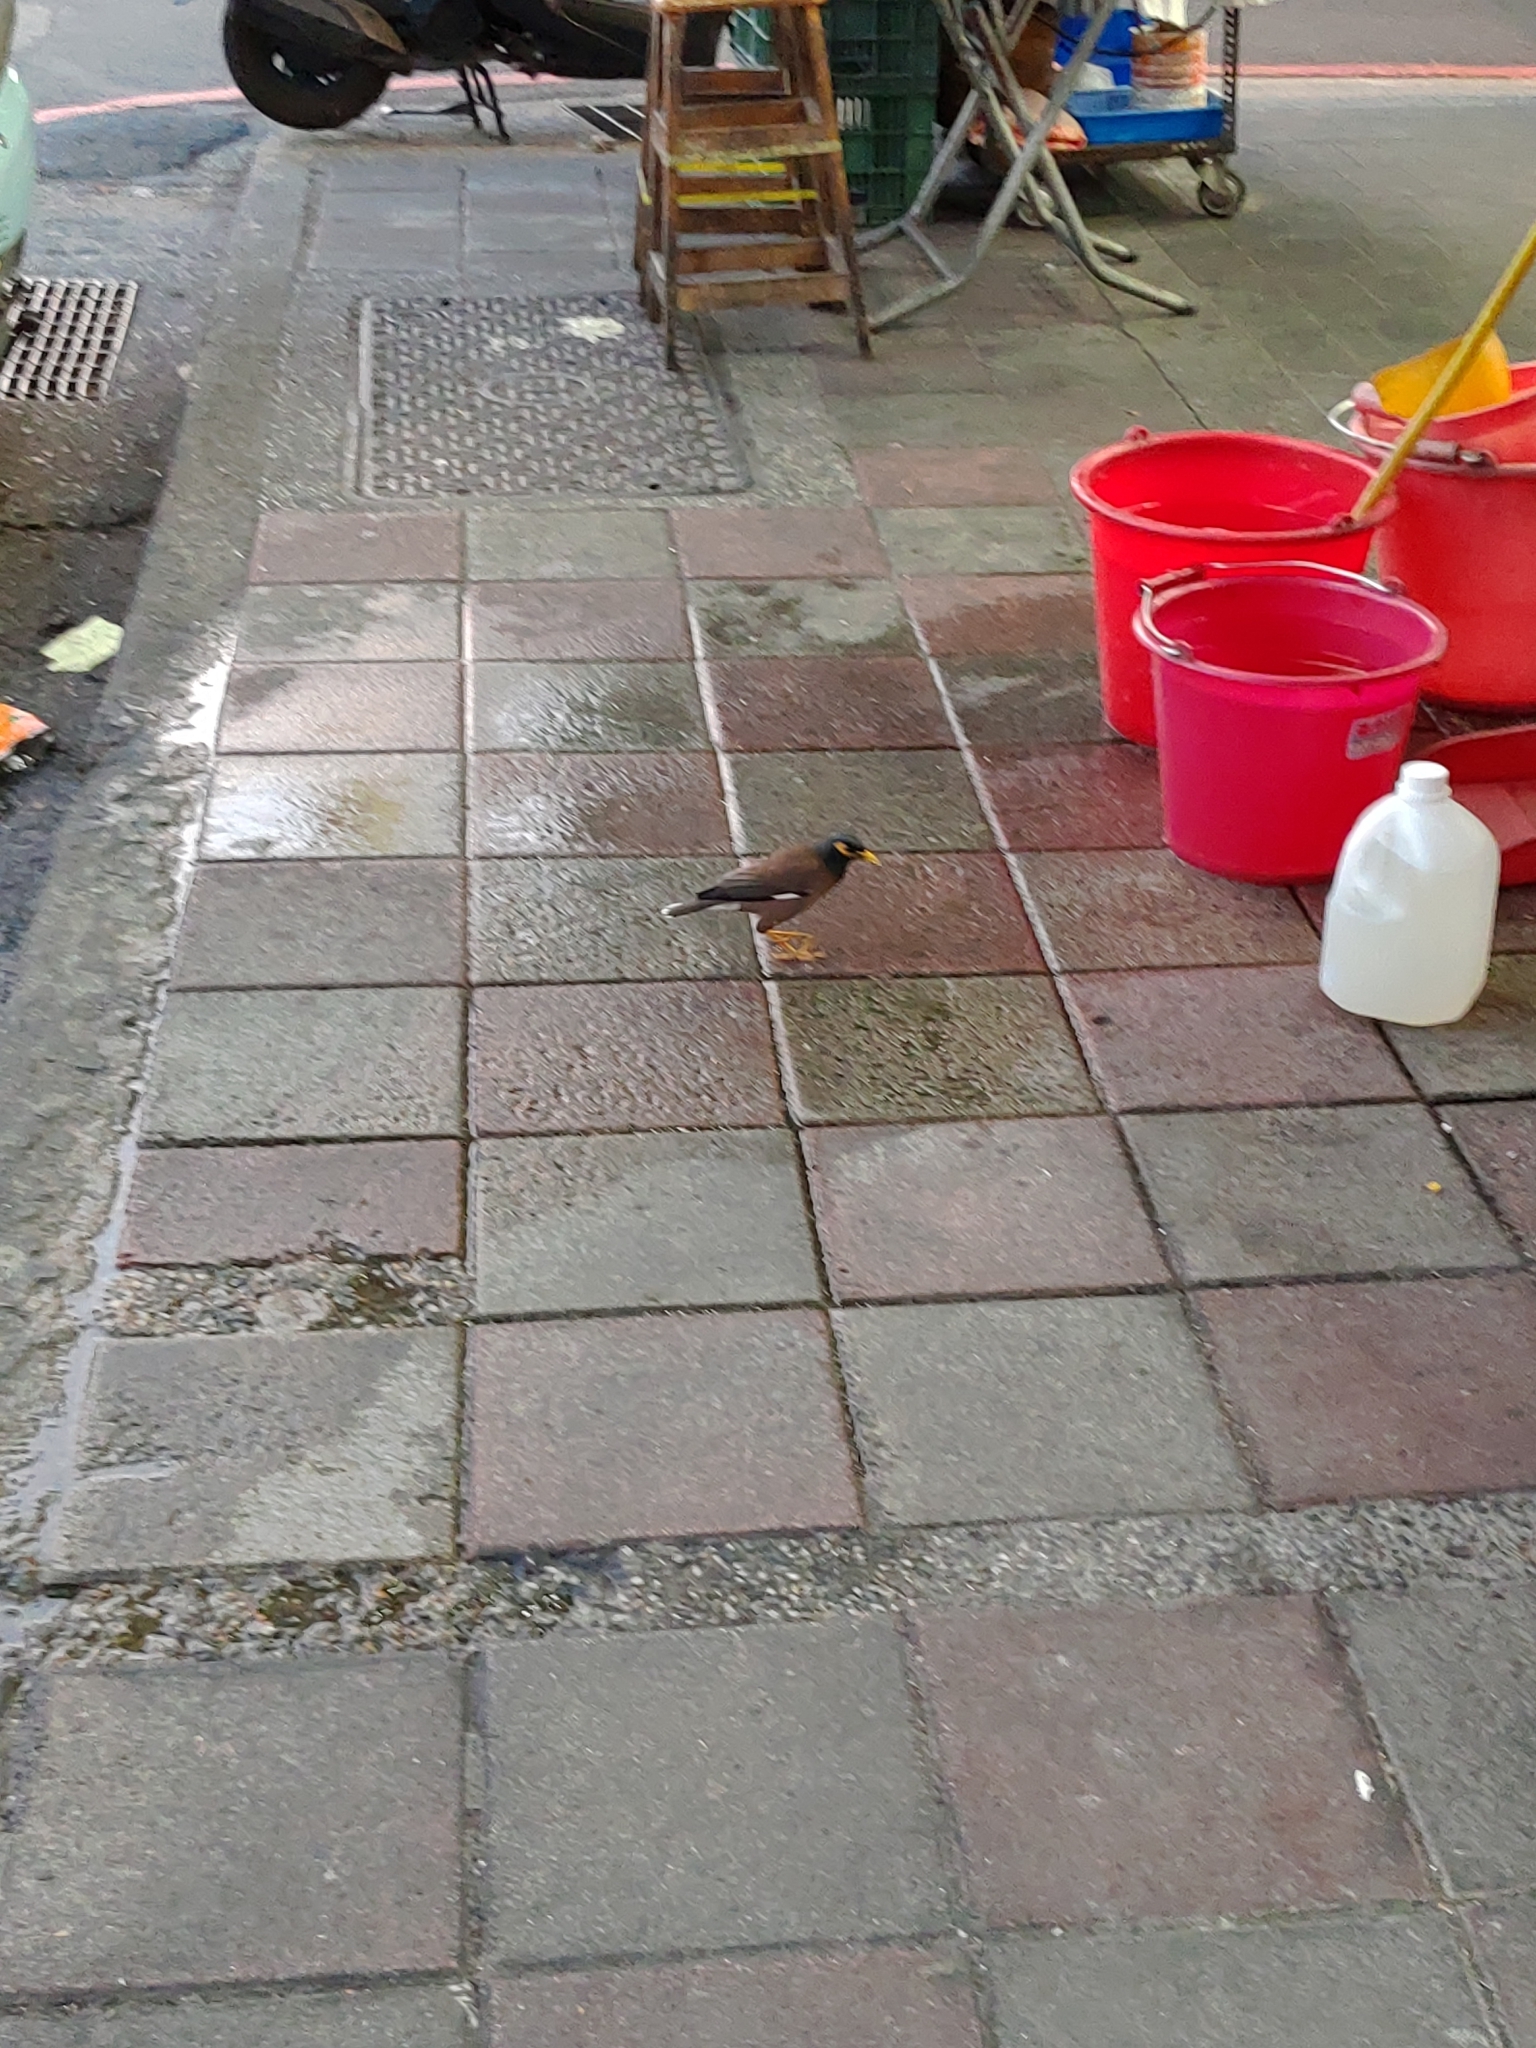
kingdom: Animalia
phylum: Chordata
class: Aves
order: Passeriformes
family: Sturnidae
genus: Acridotheres
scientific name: Acridotheres tristis
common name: Common myna
